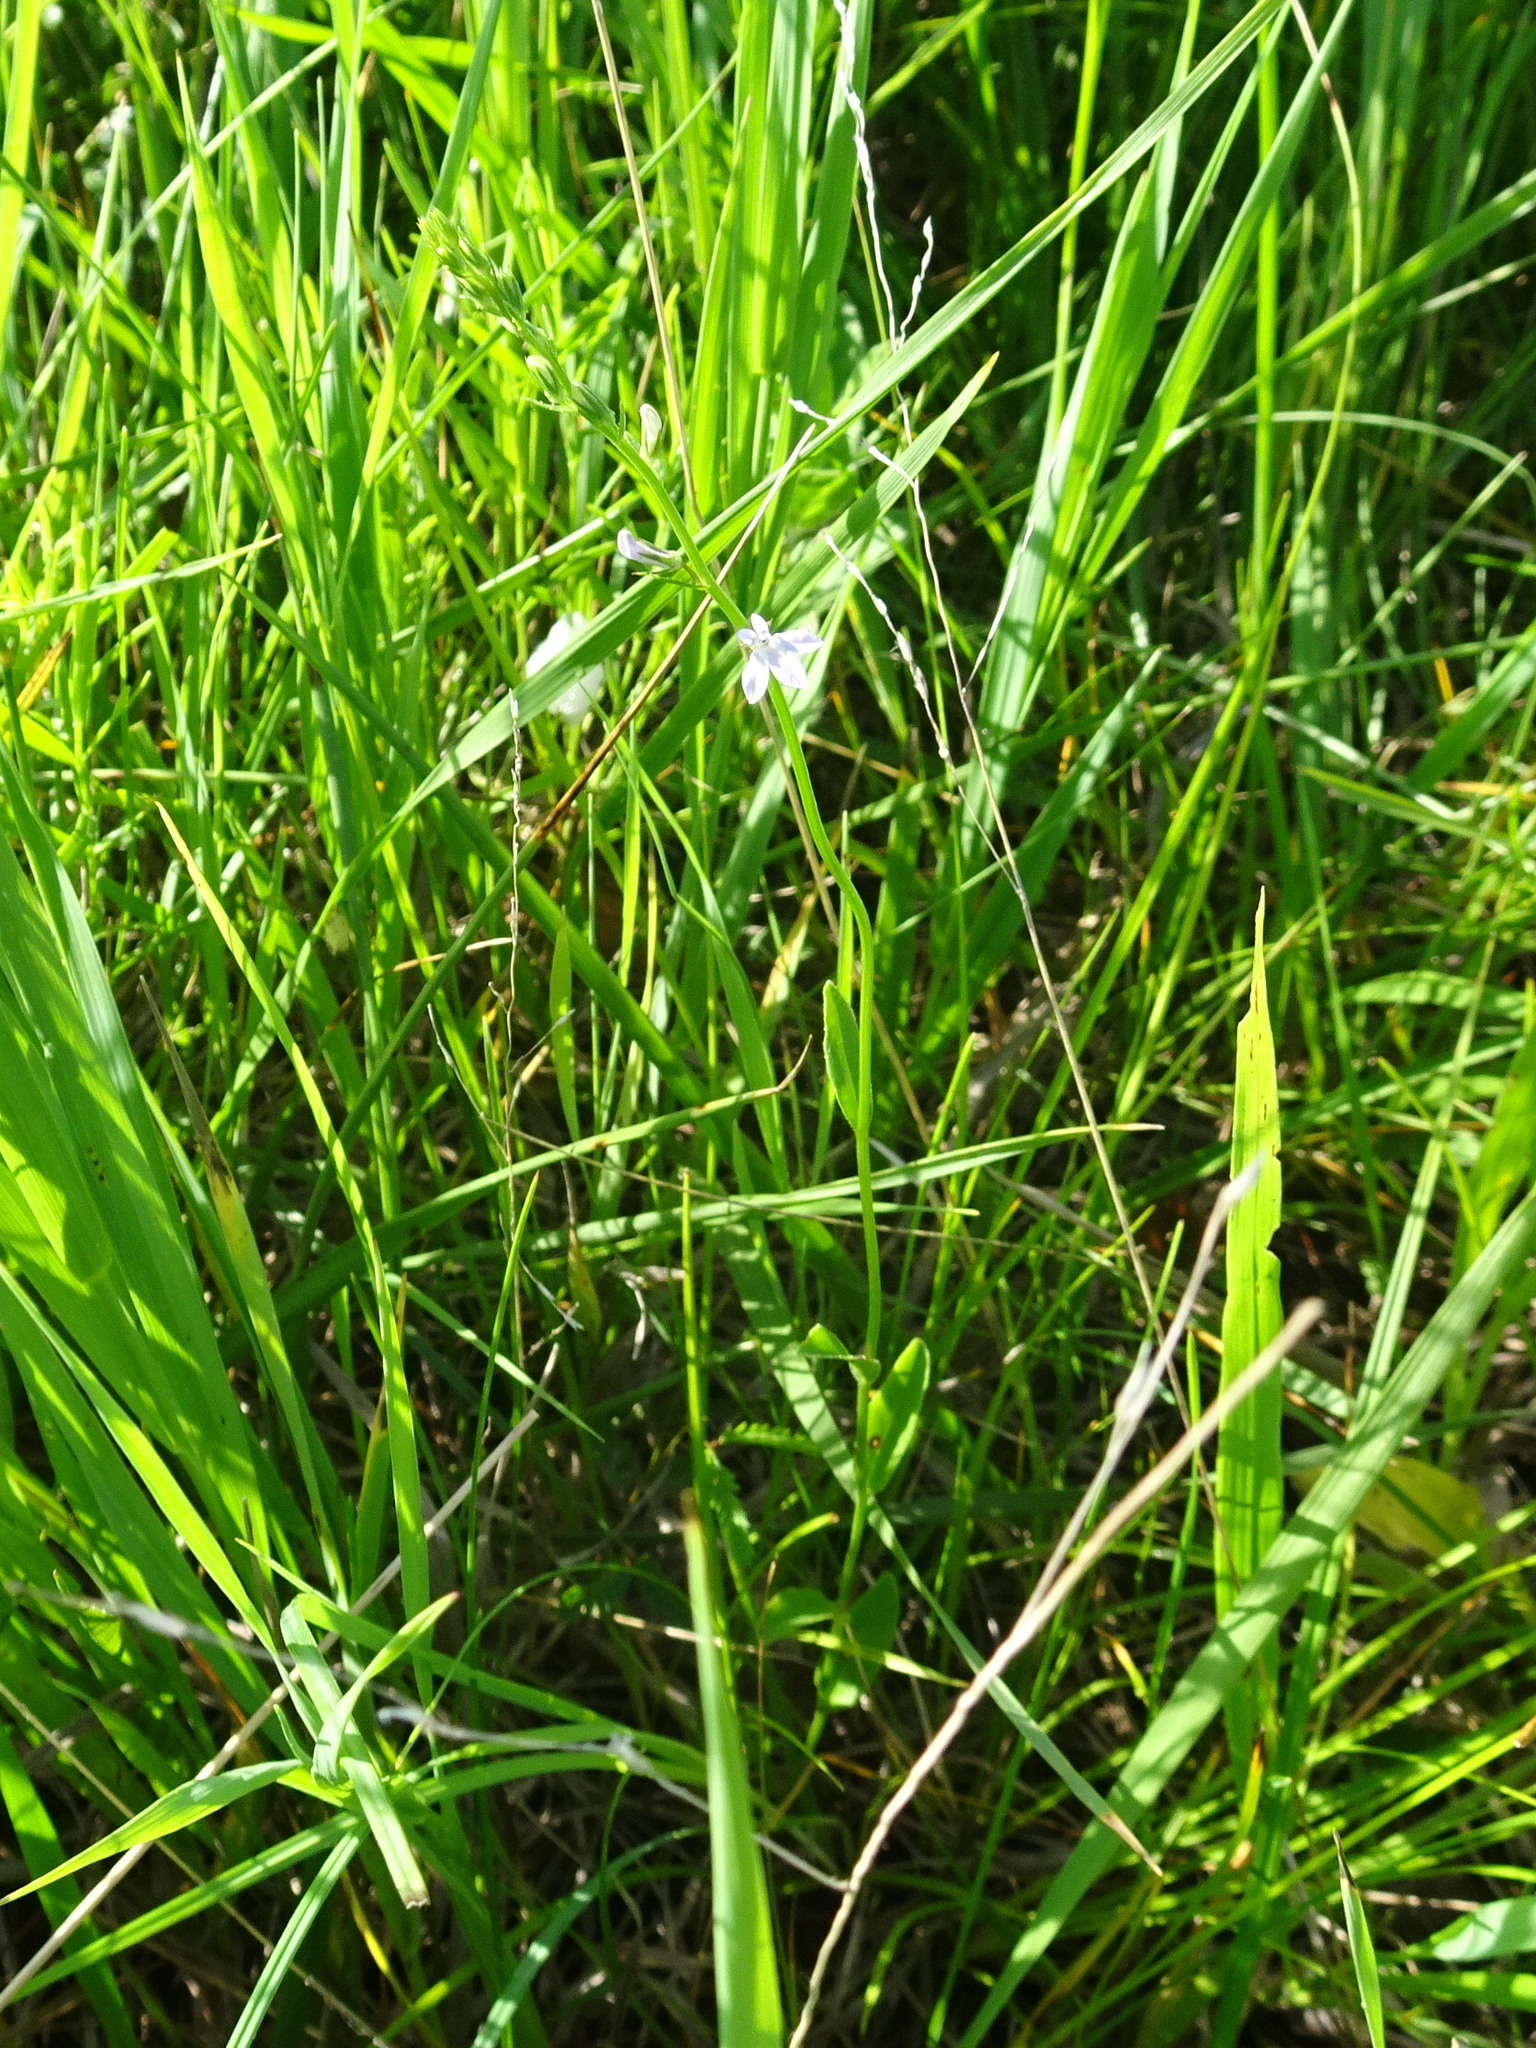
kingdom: Plantae
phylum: Tracheophyta
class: Magnoliopsida
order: Asterales
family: Campanulaceae
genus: Lobelia
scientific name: Lobelia spicata
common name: Pale-spike lobelia
